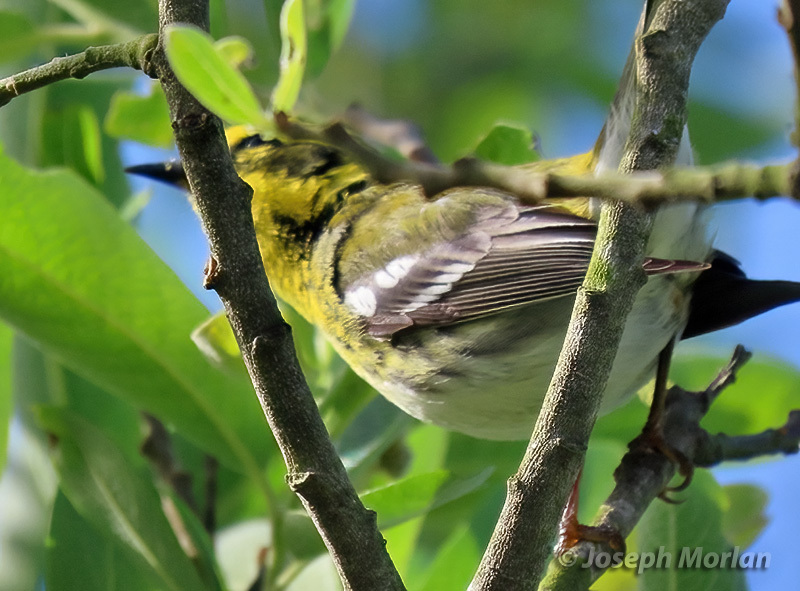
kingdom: Animalia
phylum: Chordata
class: Aves
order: Passeriformes
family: Parulidae
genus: Setophaga
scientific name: Setophaga townsendi
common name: Townsend's warbler
